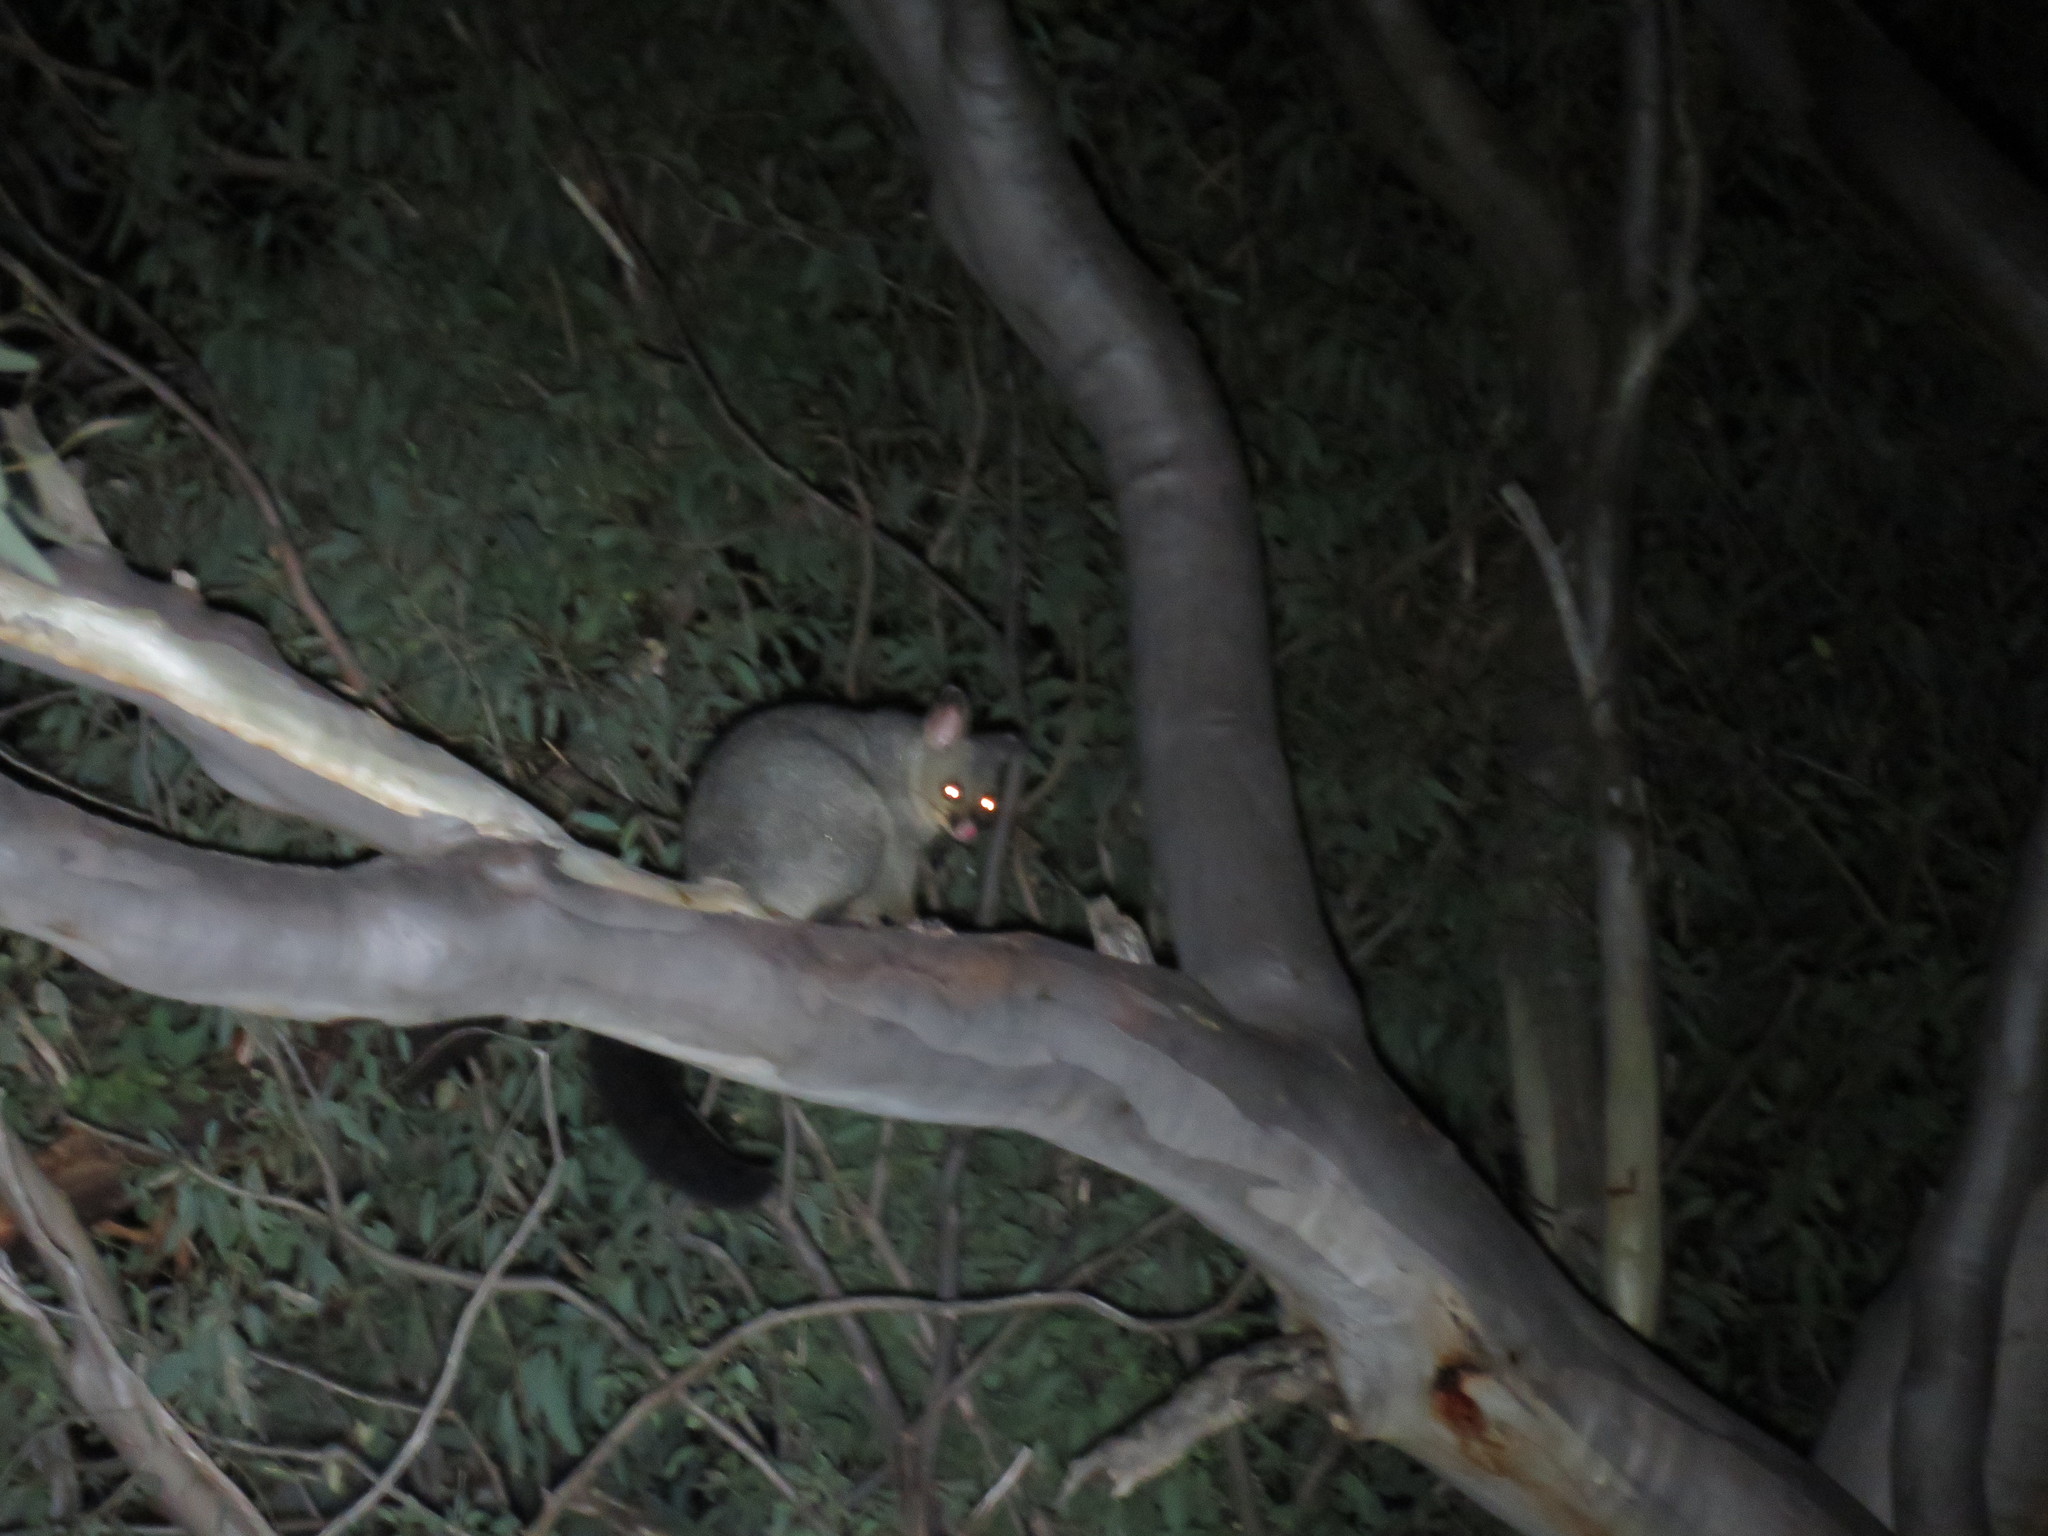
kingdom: Animalia
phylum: Chordata
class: Mammalia
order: Diprotodontia
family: Phalangeridae
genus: Trichosurus
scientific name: Trichosurus vulpecula
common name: Common brushtail
